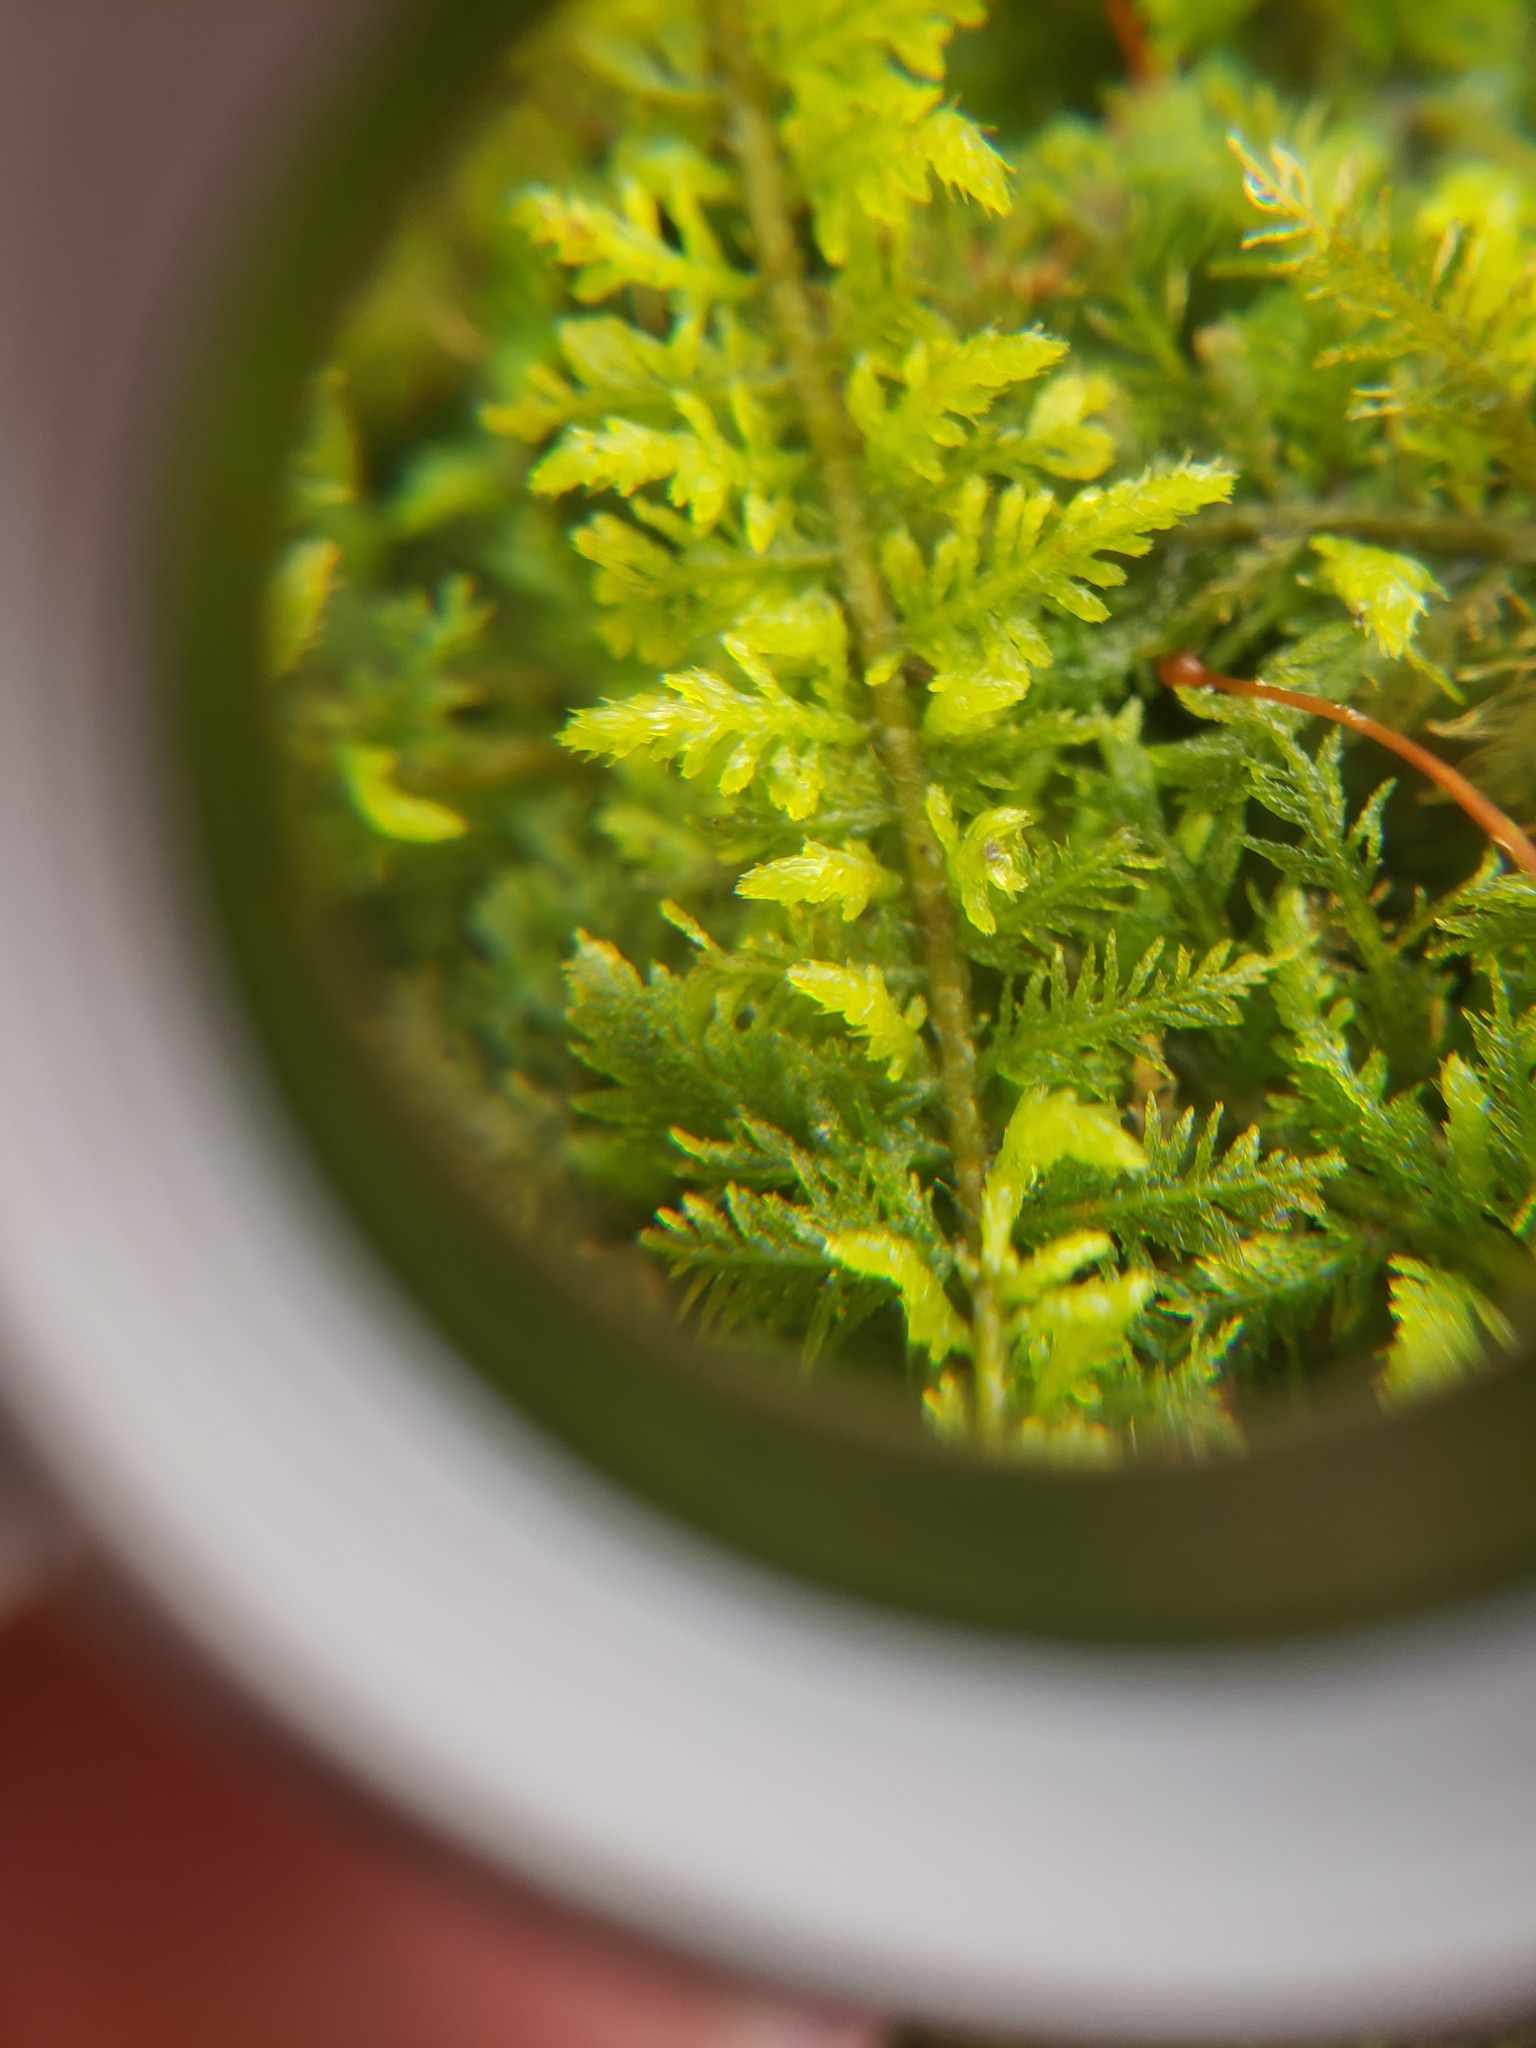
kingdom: Plantae
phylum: Bryophyta
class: Bryopsida
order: Hypnales
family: Thuidiaceae
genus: Thuidium
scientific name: Thuidium delicatulum
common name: Delicate fern moss
